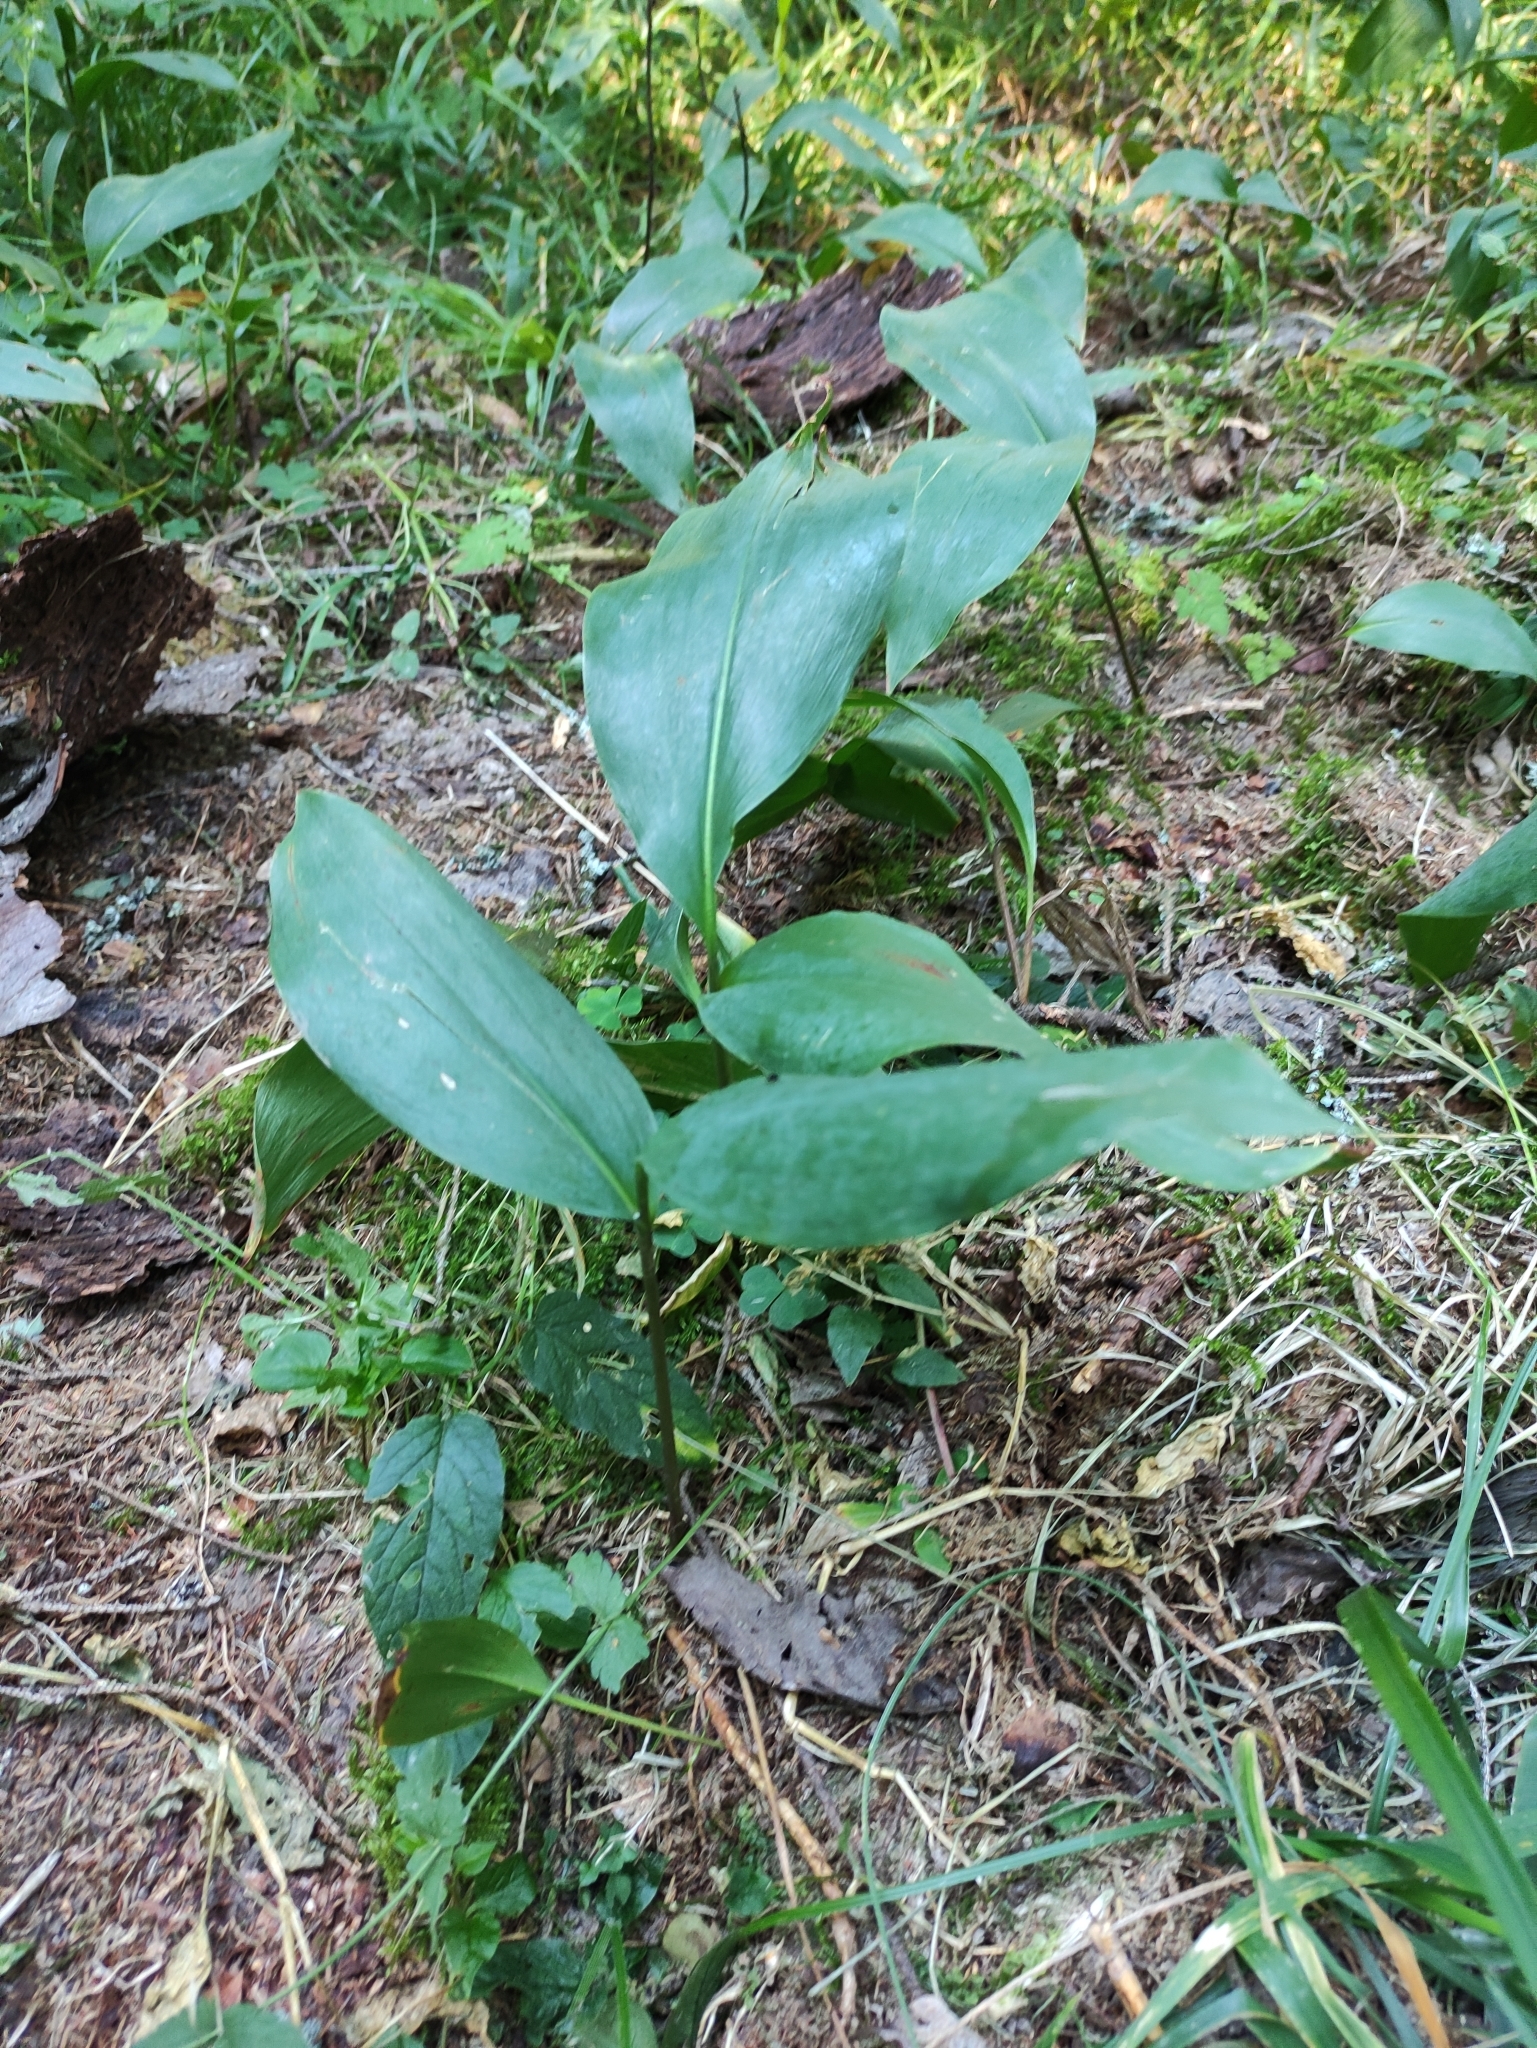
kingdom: Plantae
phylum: Tracheophyta
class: Liliopsida
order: Asparagales
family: Asparagaceae
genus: Convallaria
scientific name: Convallaria majalis
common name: Lily-of-the-valley
